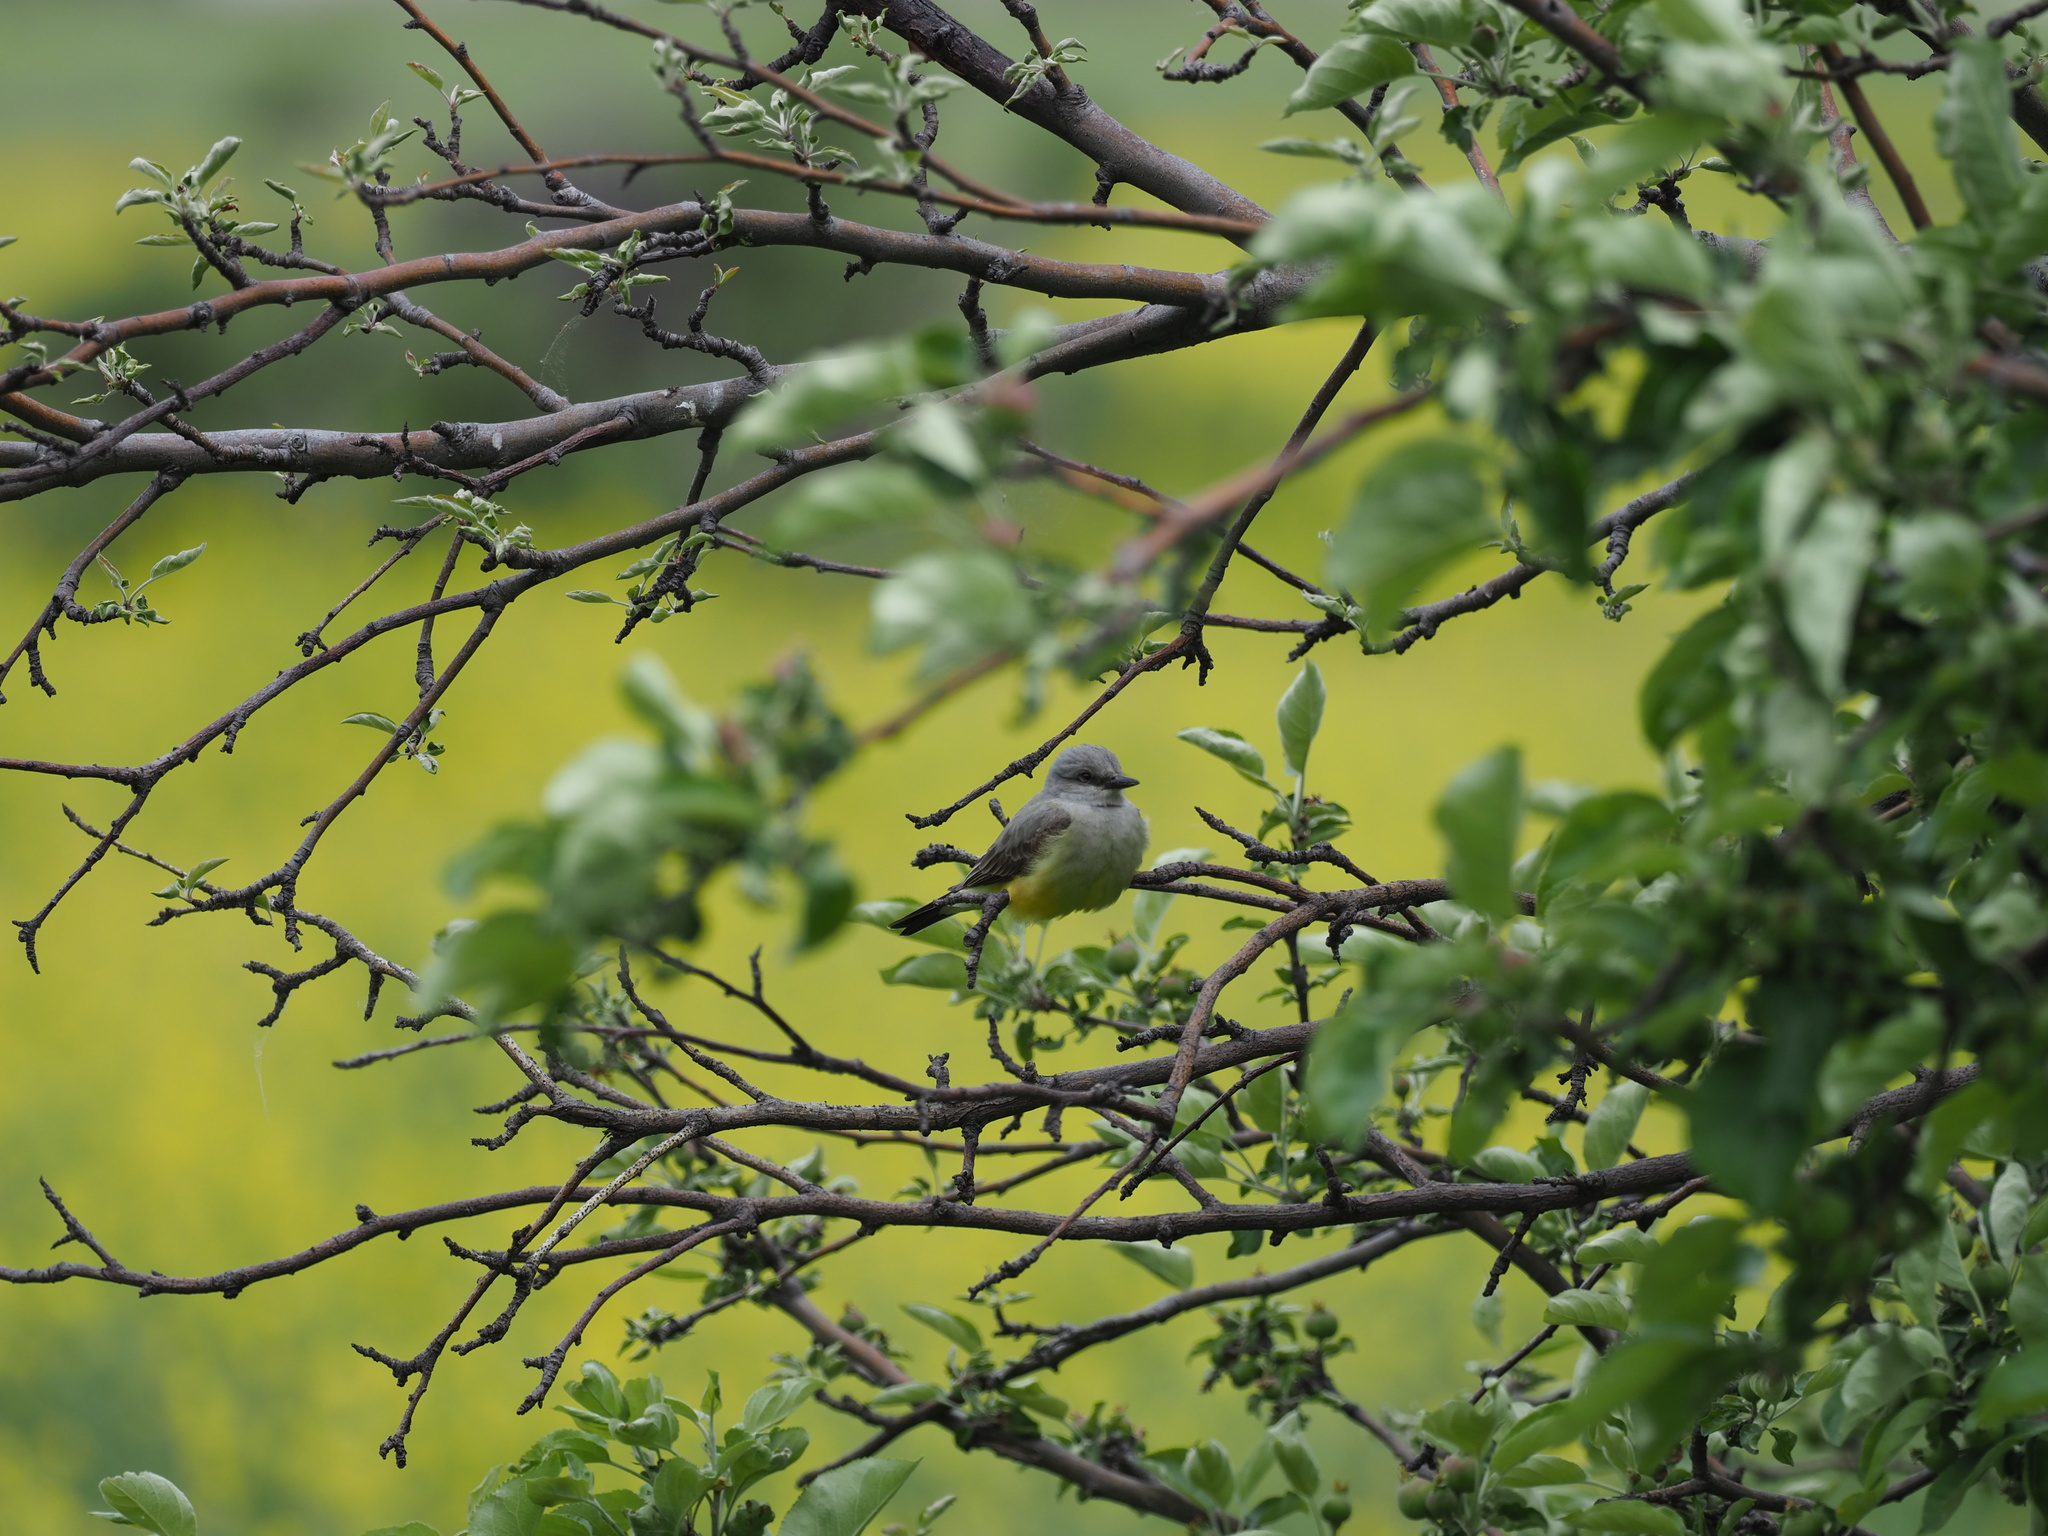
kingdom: Animalia
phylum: Chordata
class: Aves
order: Passeriformes
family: Tyrannidae
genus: Tyrannus
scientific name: Tyrannus verticalis
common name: Western kingbird
